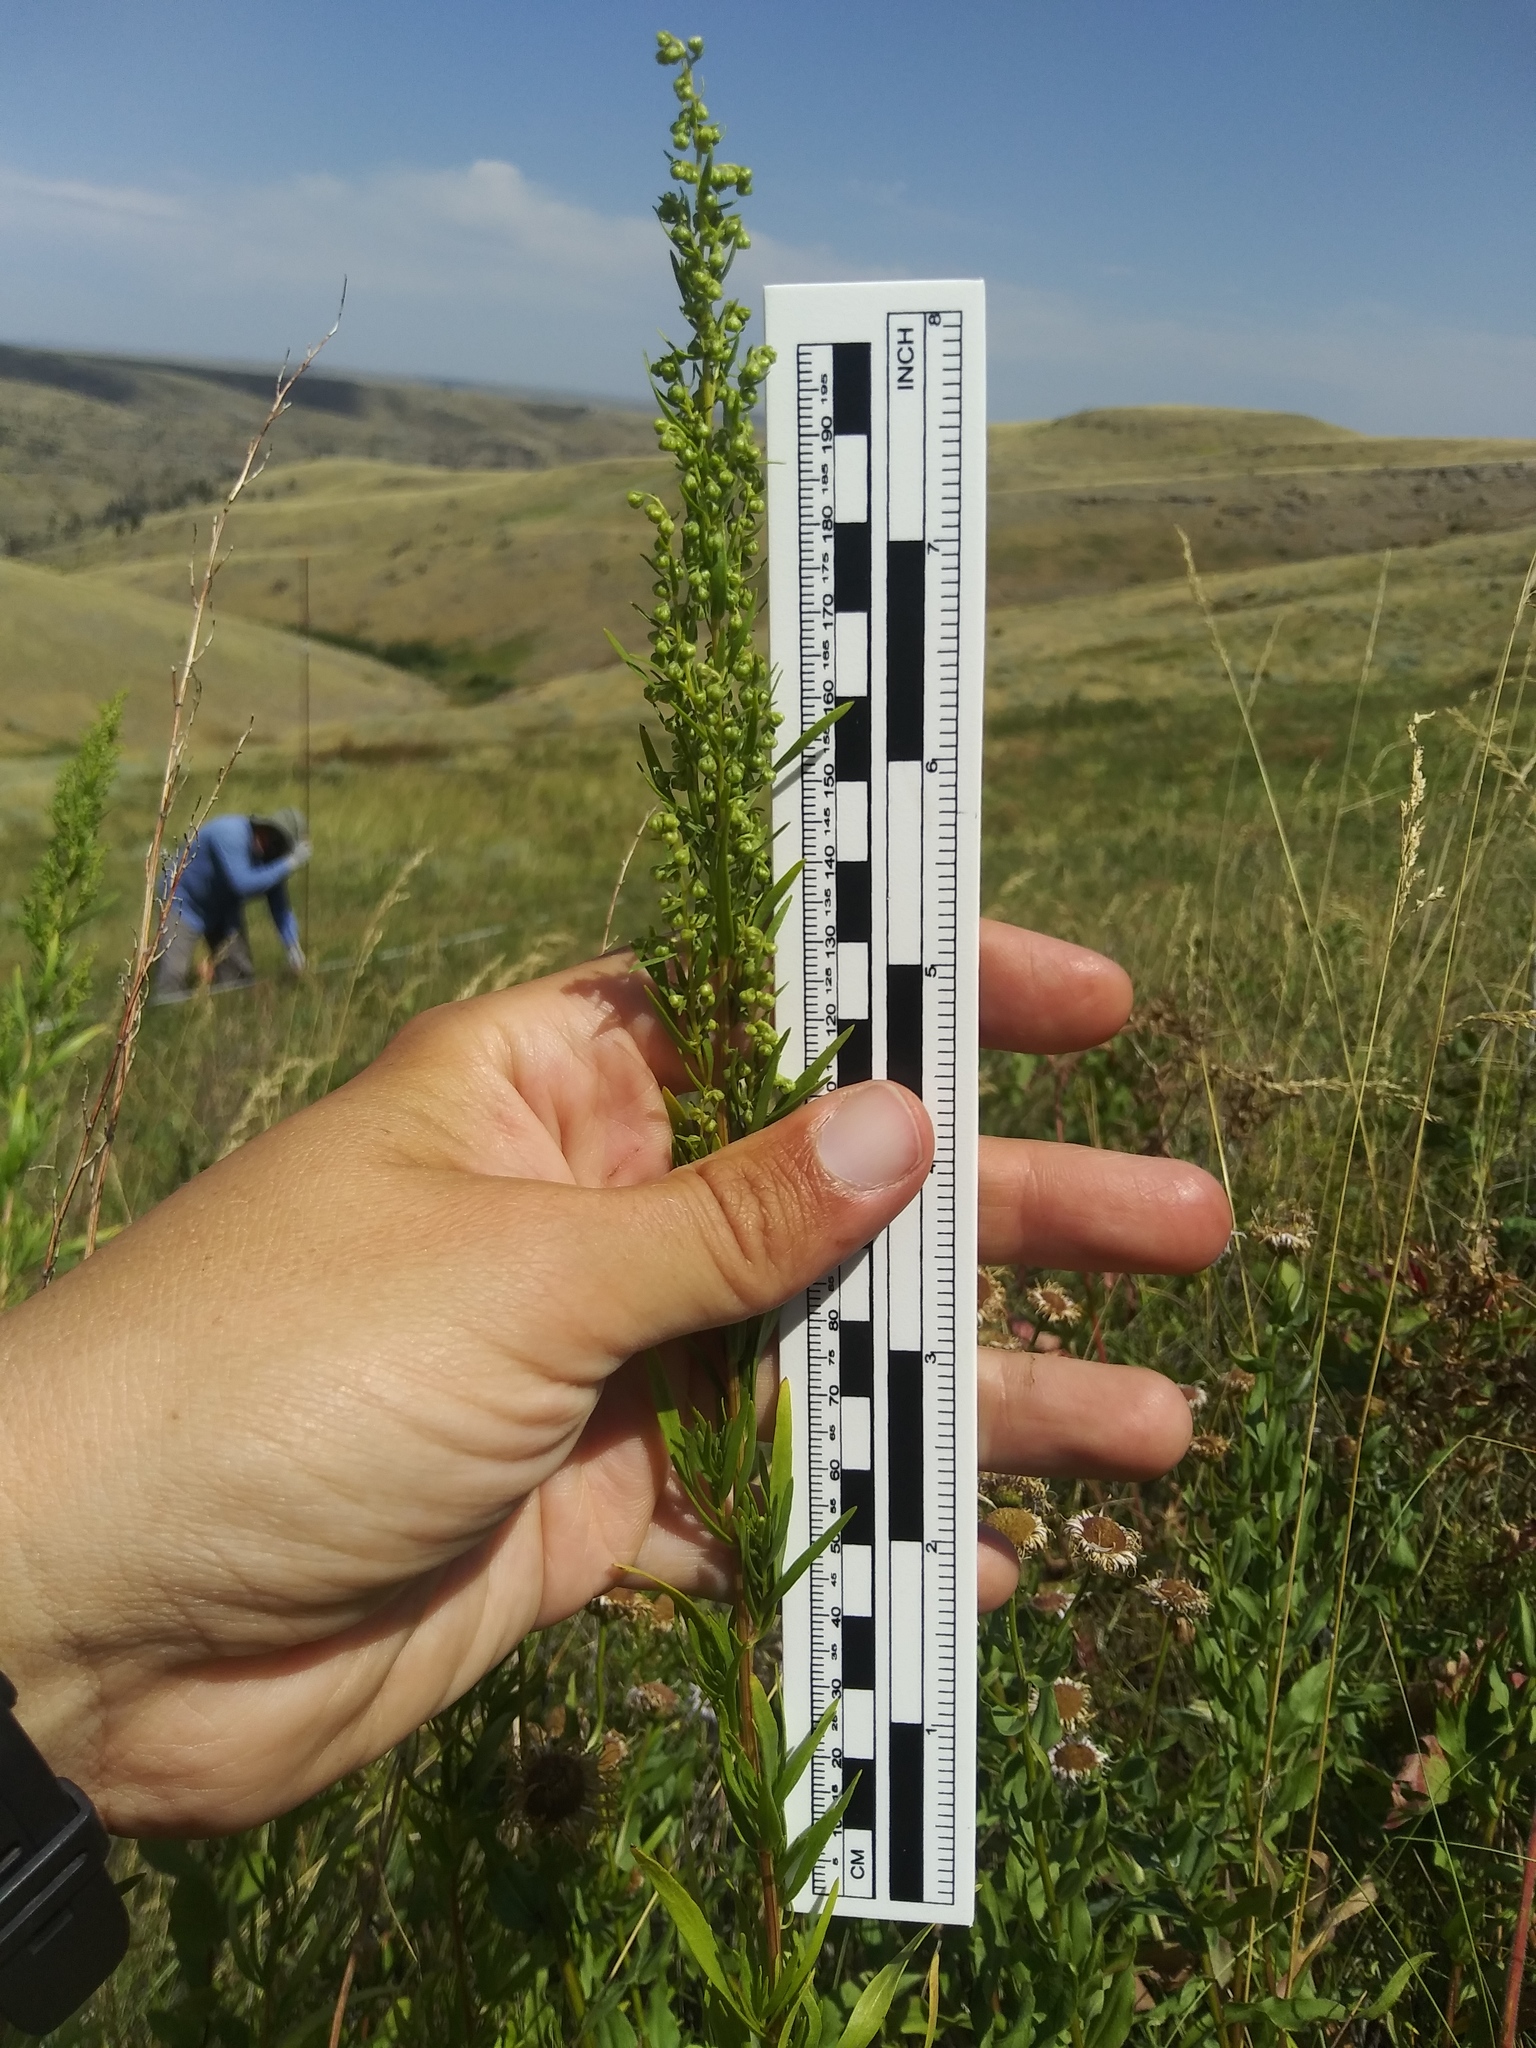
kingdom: Plantae
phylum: Tracheophyta
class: Magnoliopsida
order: Asterales
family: Asteraceae
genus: Erigeron
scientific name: Erigeron canadensis
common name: Canadian fleabane
